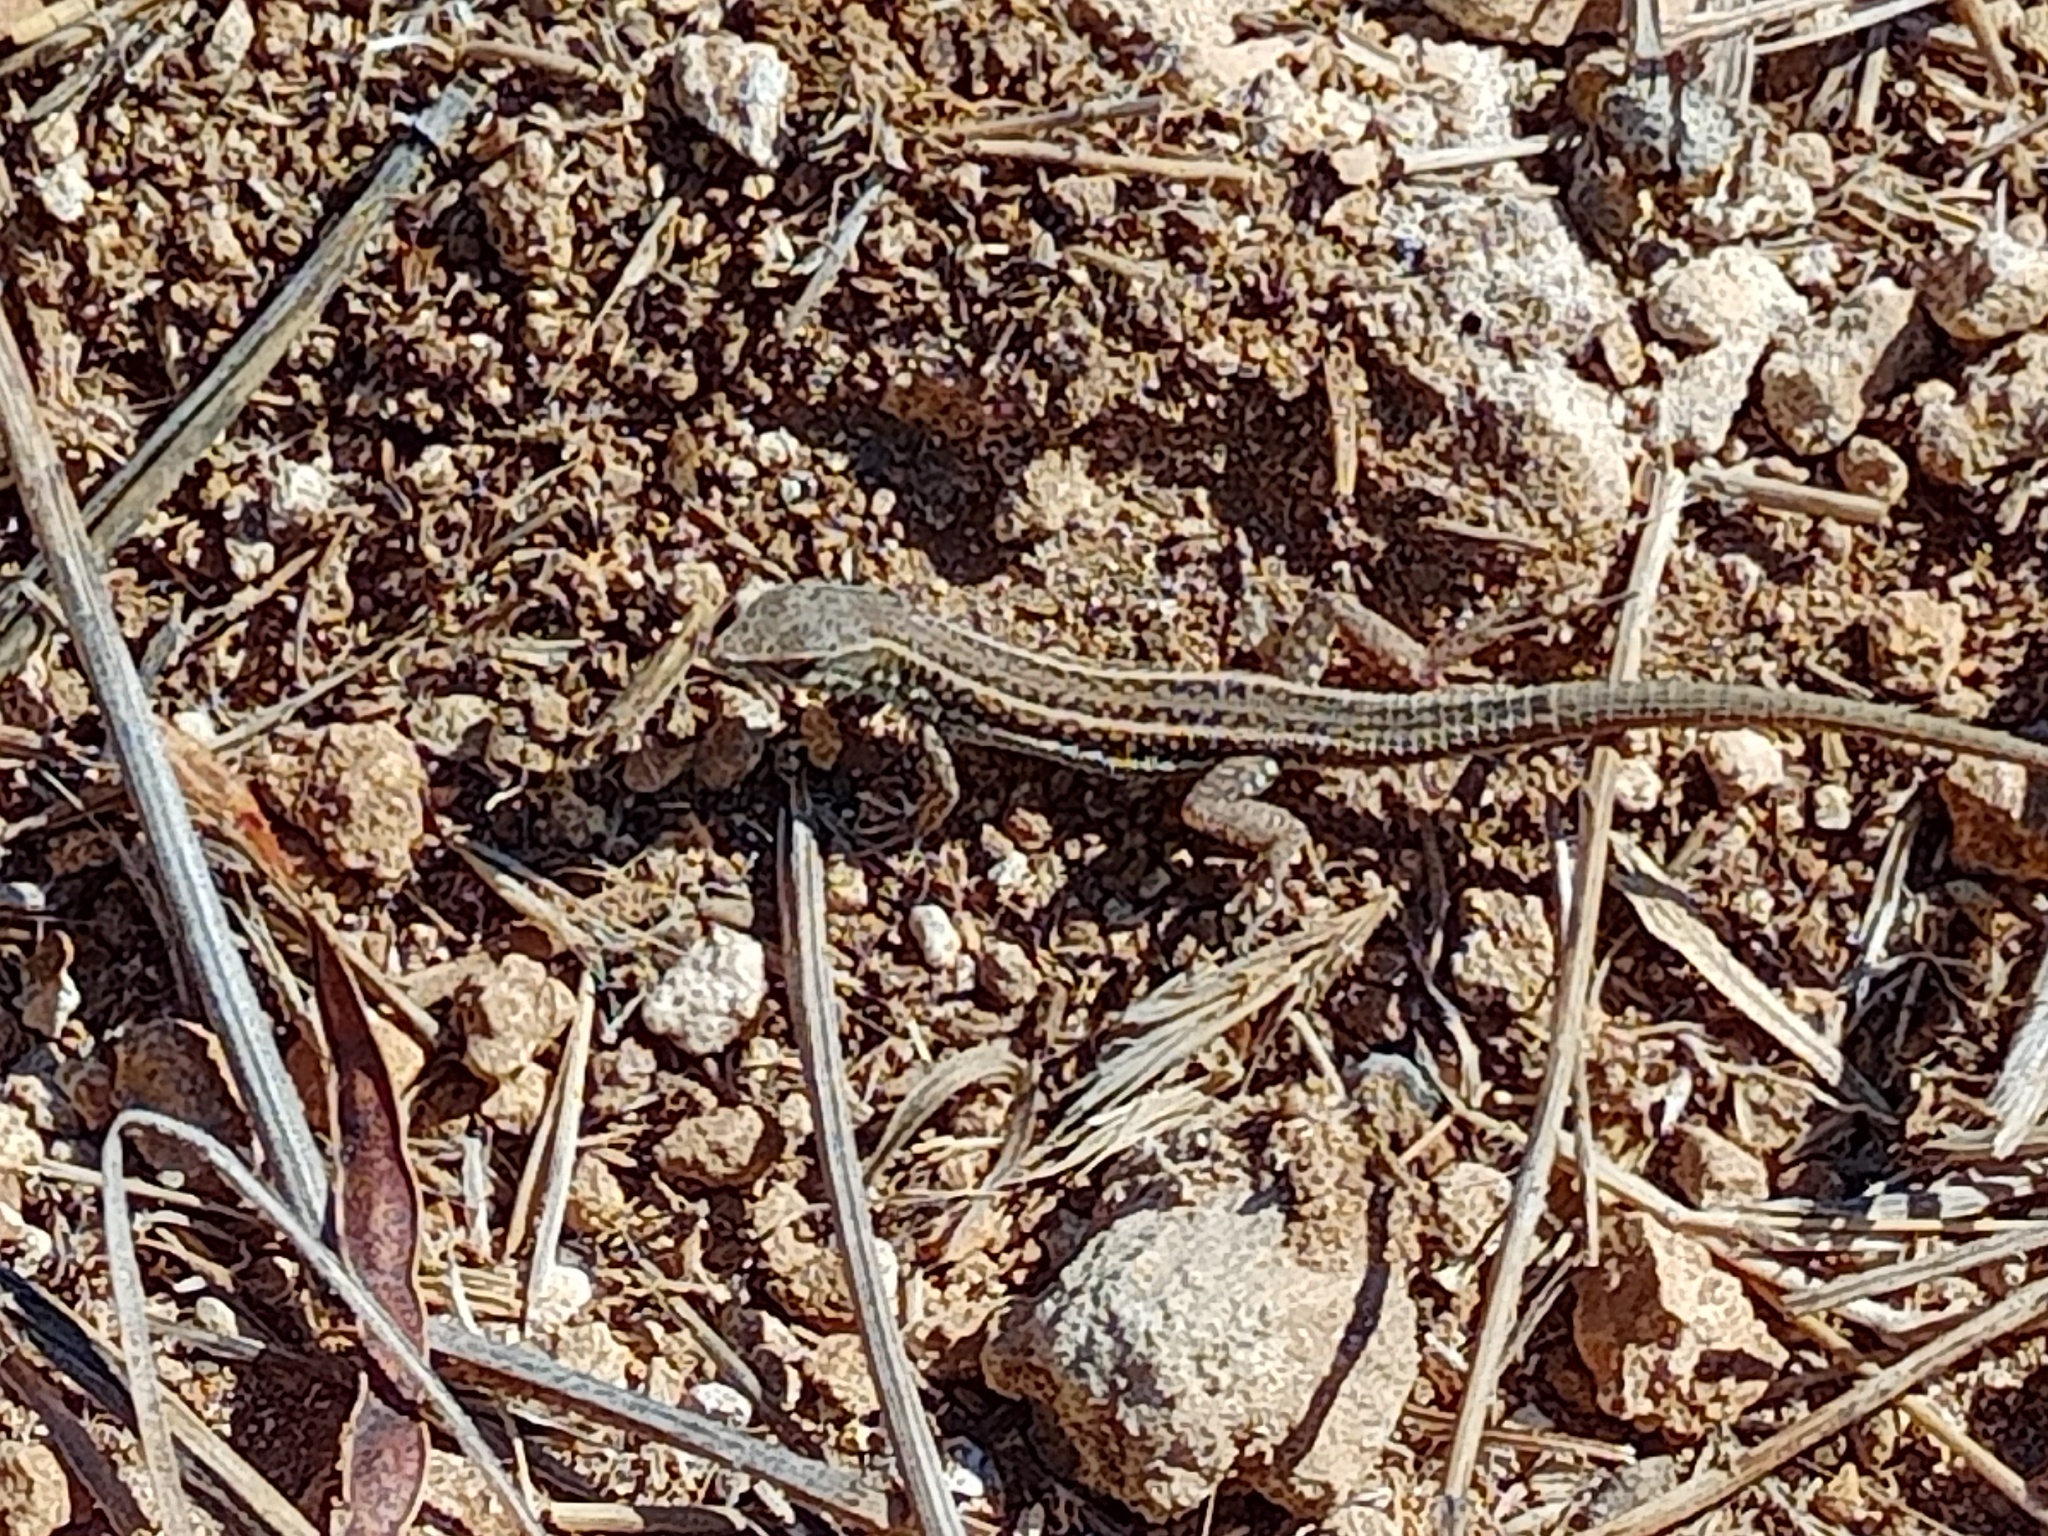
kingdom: Animalia
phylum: Chordata
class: Squamata
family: Lacertidae
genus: Ophisops
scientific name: Ophisops elegans
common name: Snake-eyed lizard
